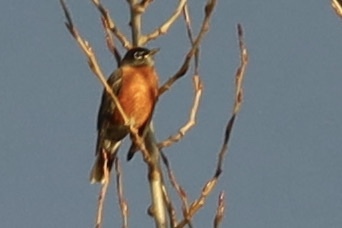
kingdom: Animalia
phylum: Chordata
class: Aves
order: Passeriformes
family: Turdidae
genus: Turdus
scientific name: Turdus migratorius
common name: American robin
